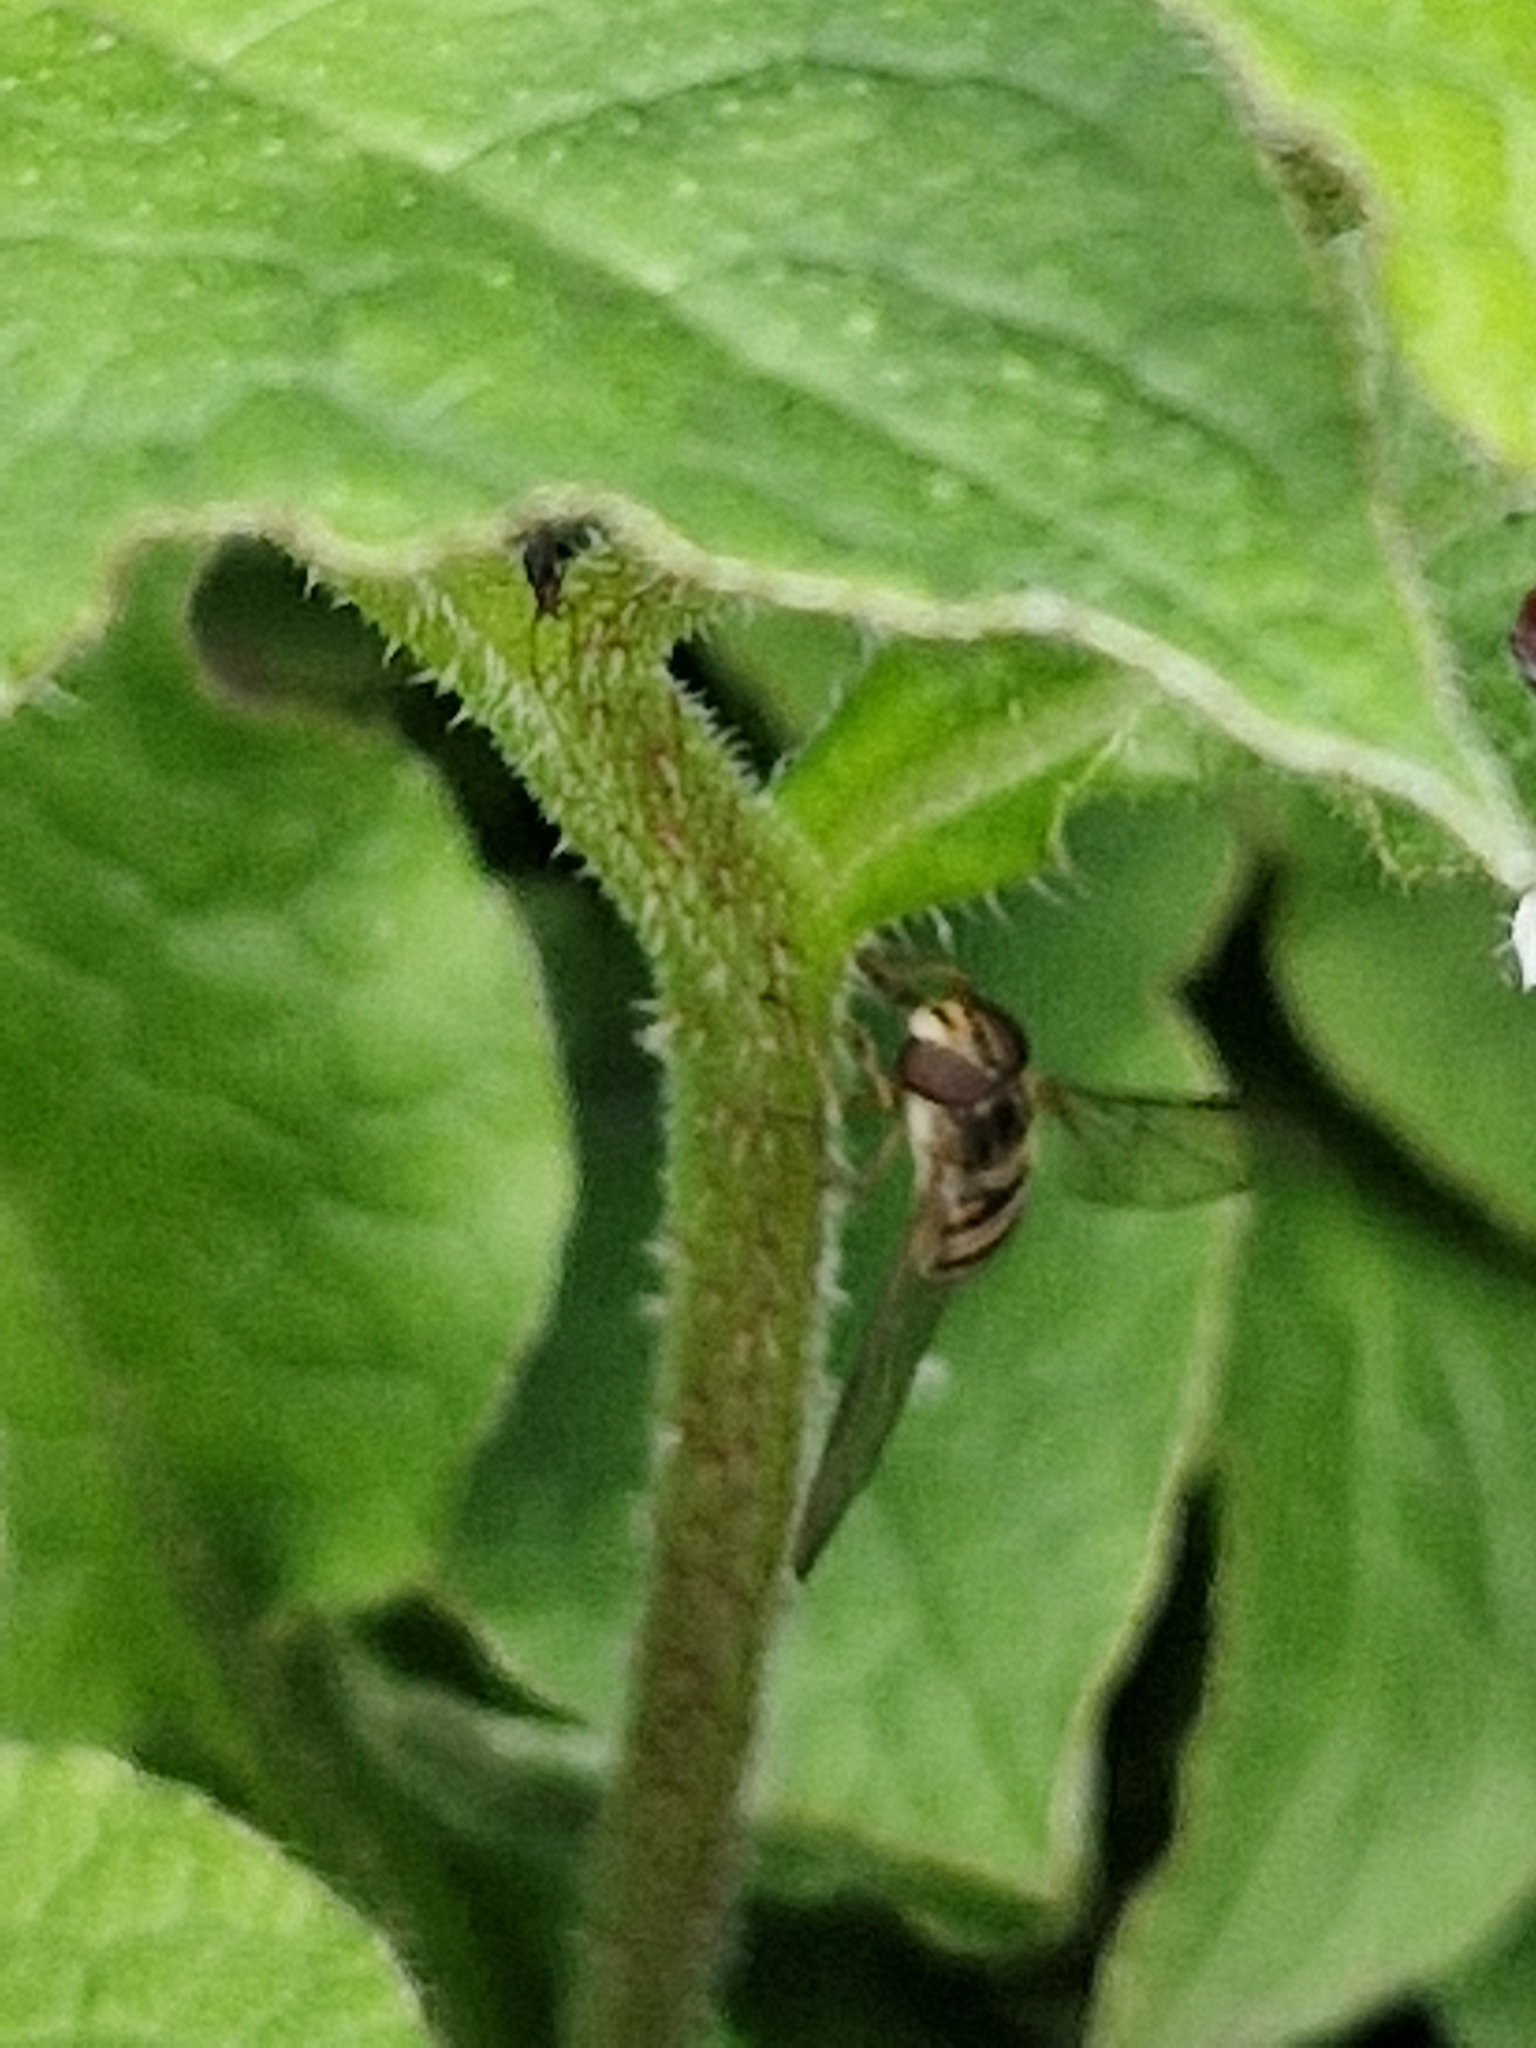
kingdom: Animalia
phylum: Arthropoda
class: Insecta
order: Diptera
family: Syrphidae
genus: Episyrphus
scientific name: Episyrphus balteatus
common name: Marmalade hoverfly
